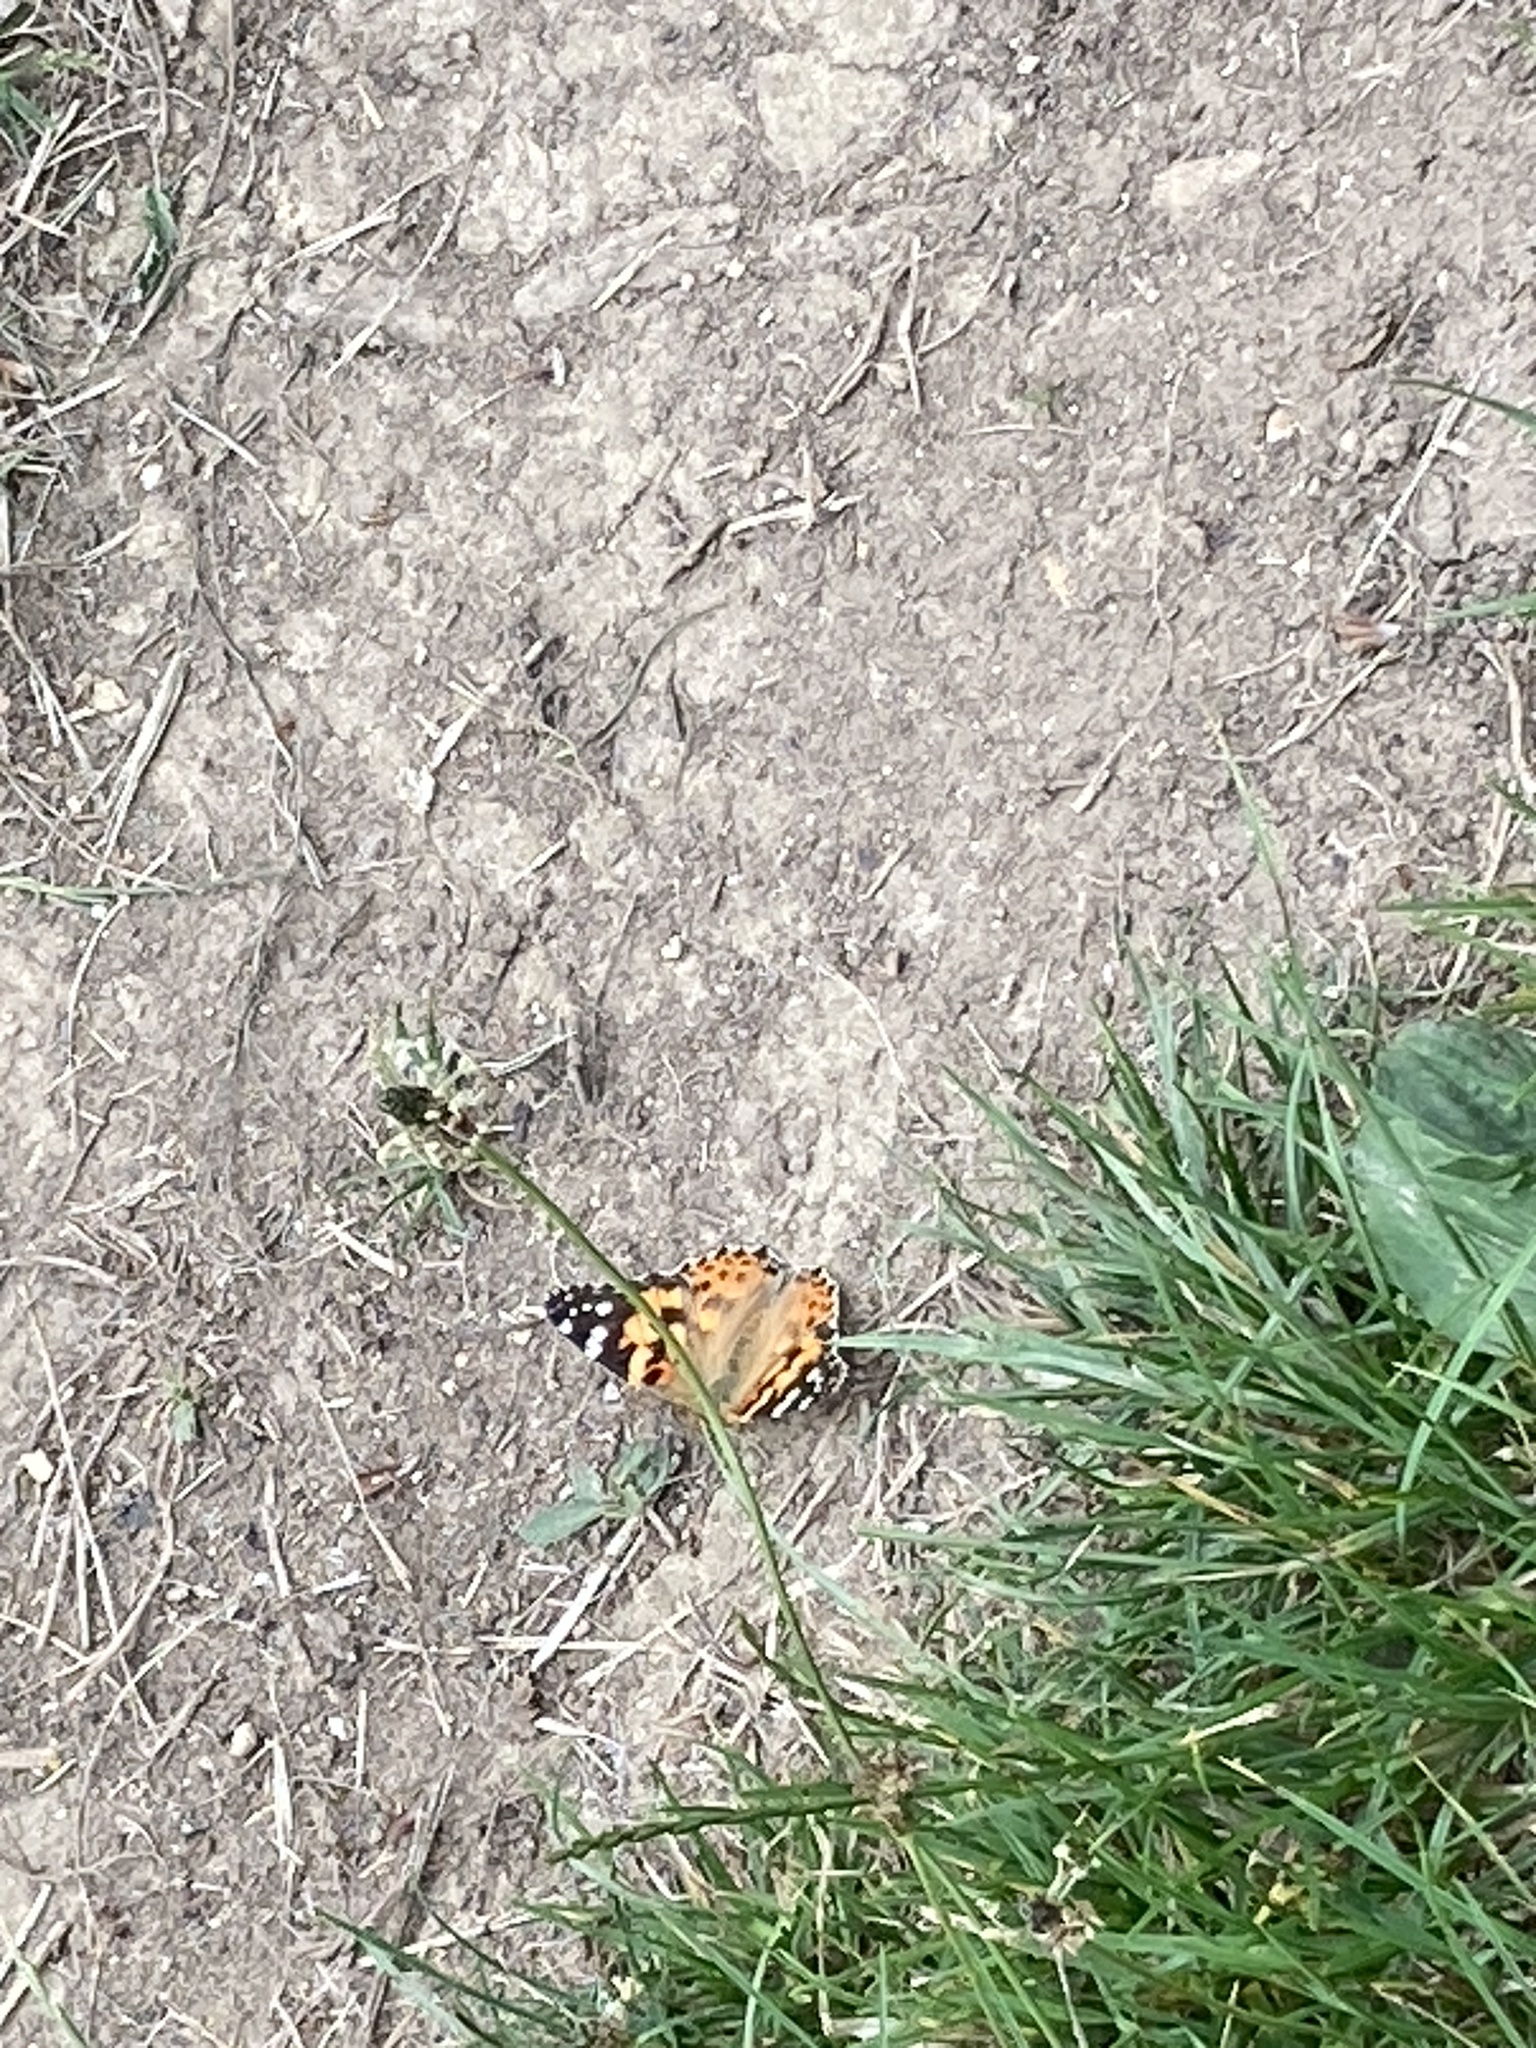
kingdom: Animalia
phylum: Arthropoda
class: Insecta
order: Lepidoptera
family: Nymphalidae
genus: Vanessa
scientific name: Vanessa cardui
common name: Painted lady
